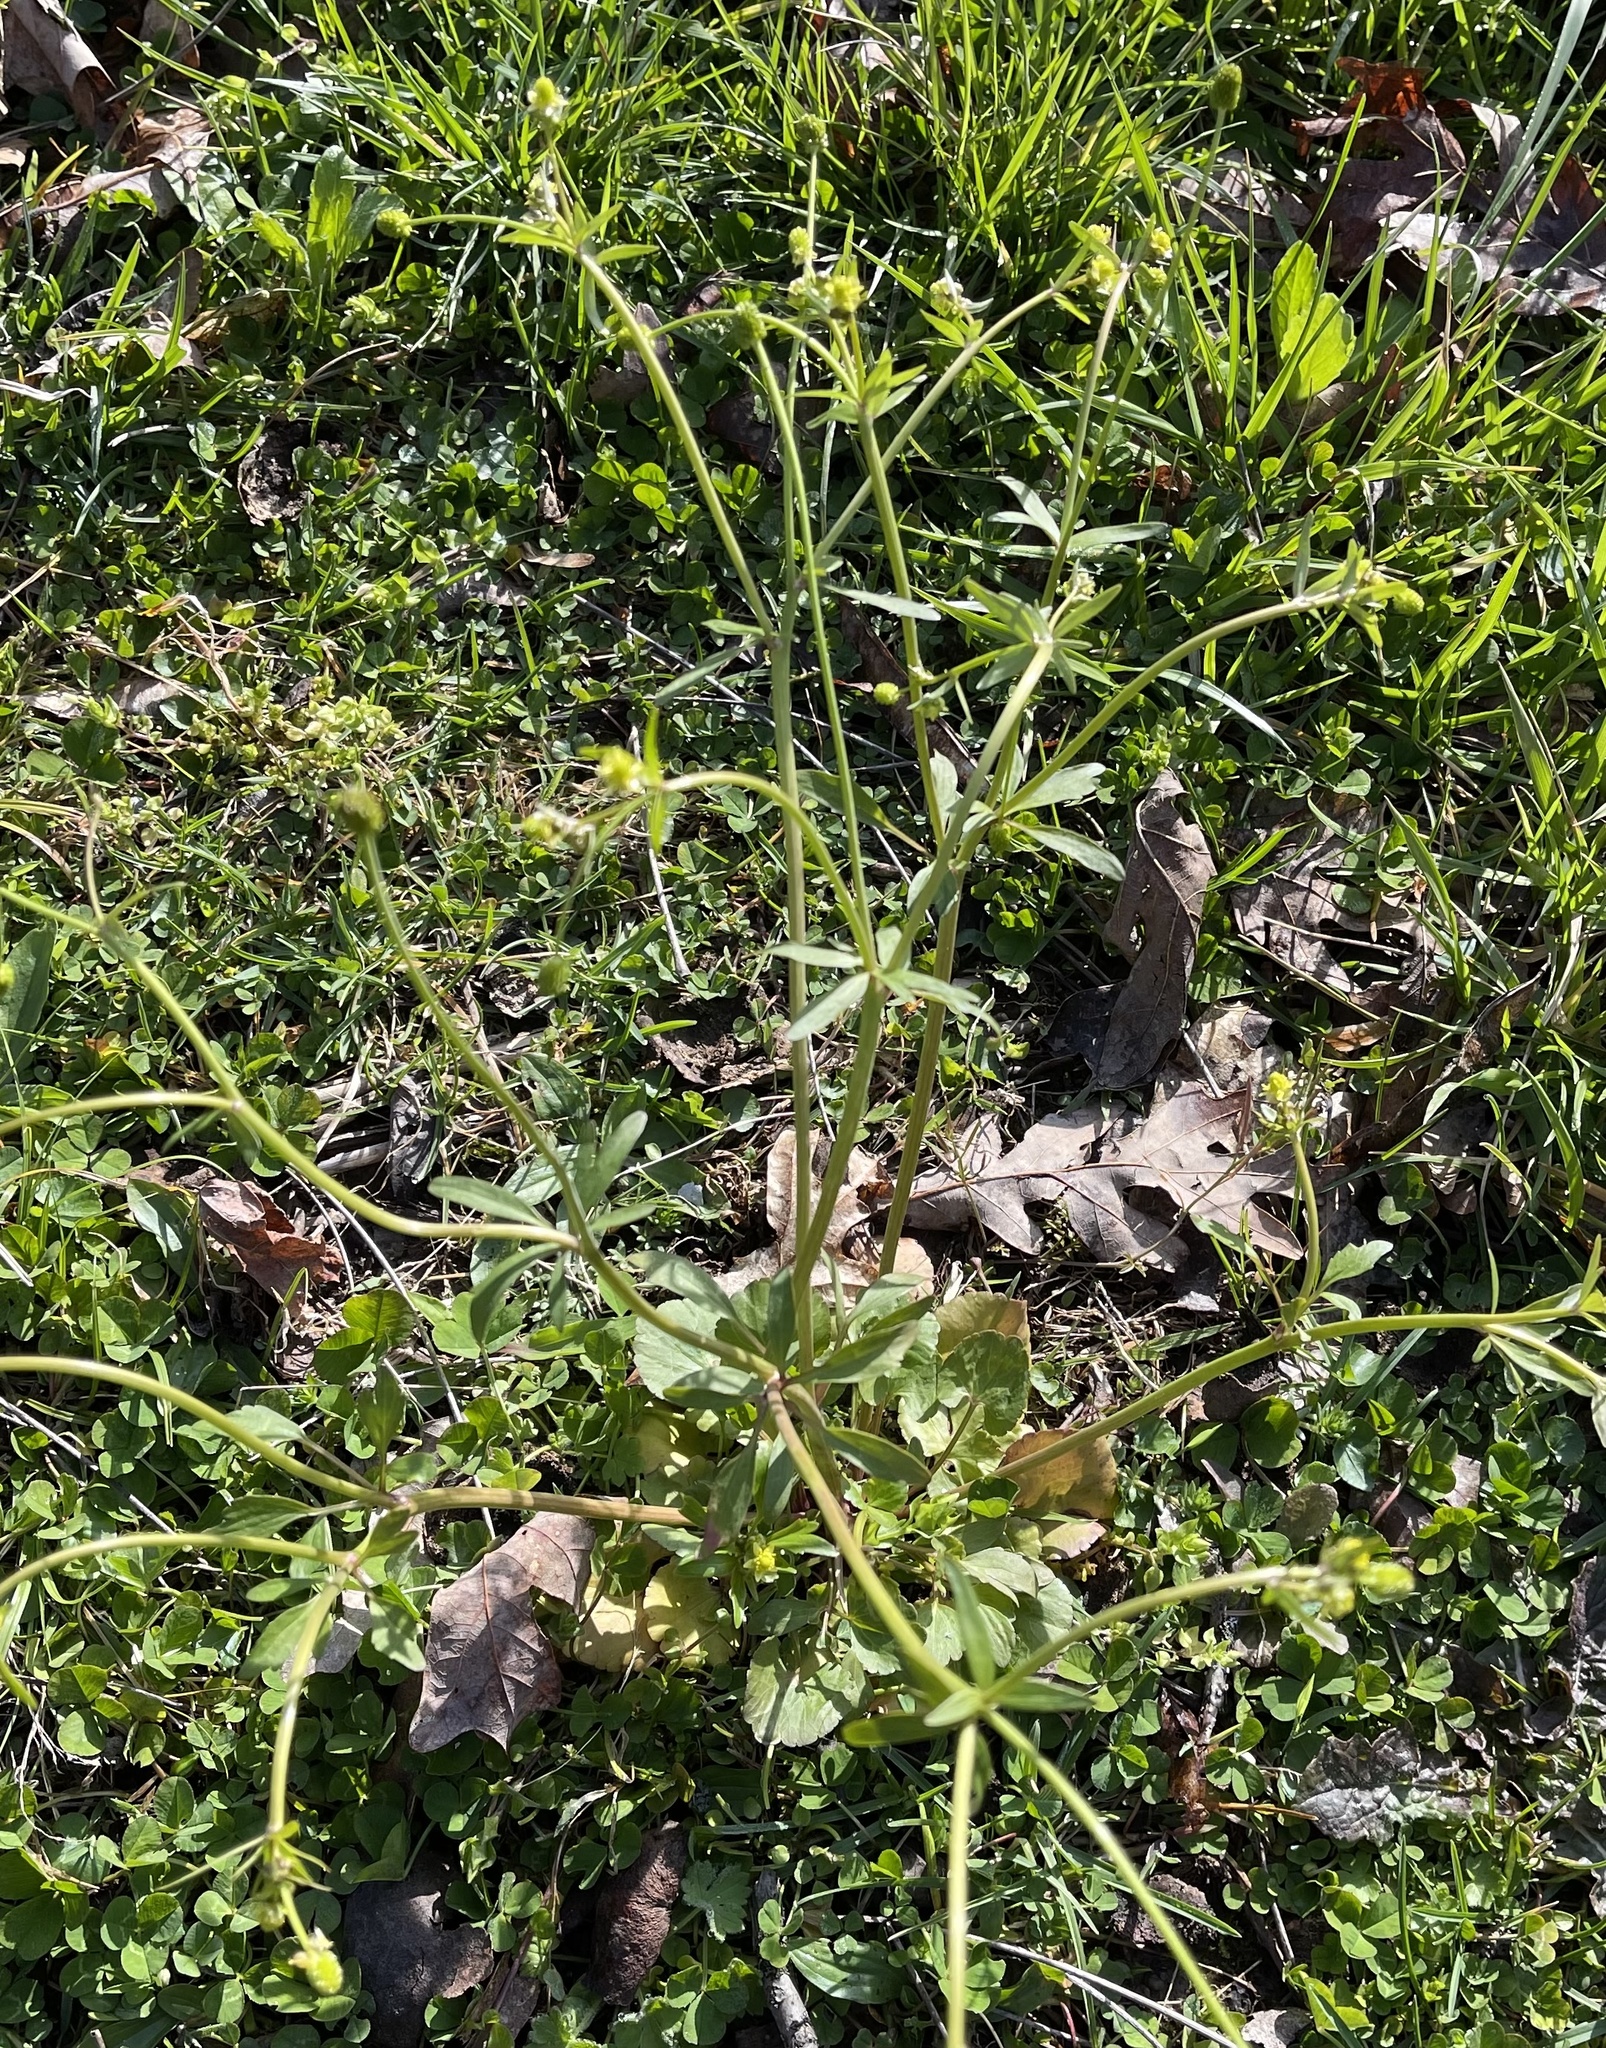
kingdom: Plantae
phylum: Tracheophyta
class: Magnoliopsida
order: Ranunculales
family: Ranunculaceae
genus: Ranunculus
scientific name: Ranunculus abortivus
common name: Early wood buttercup
